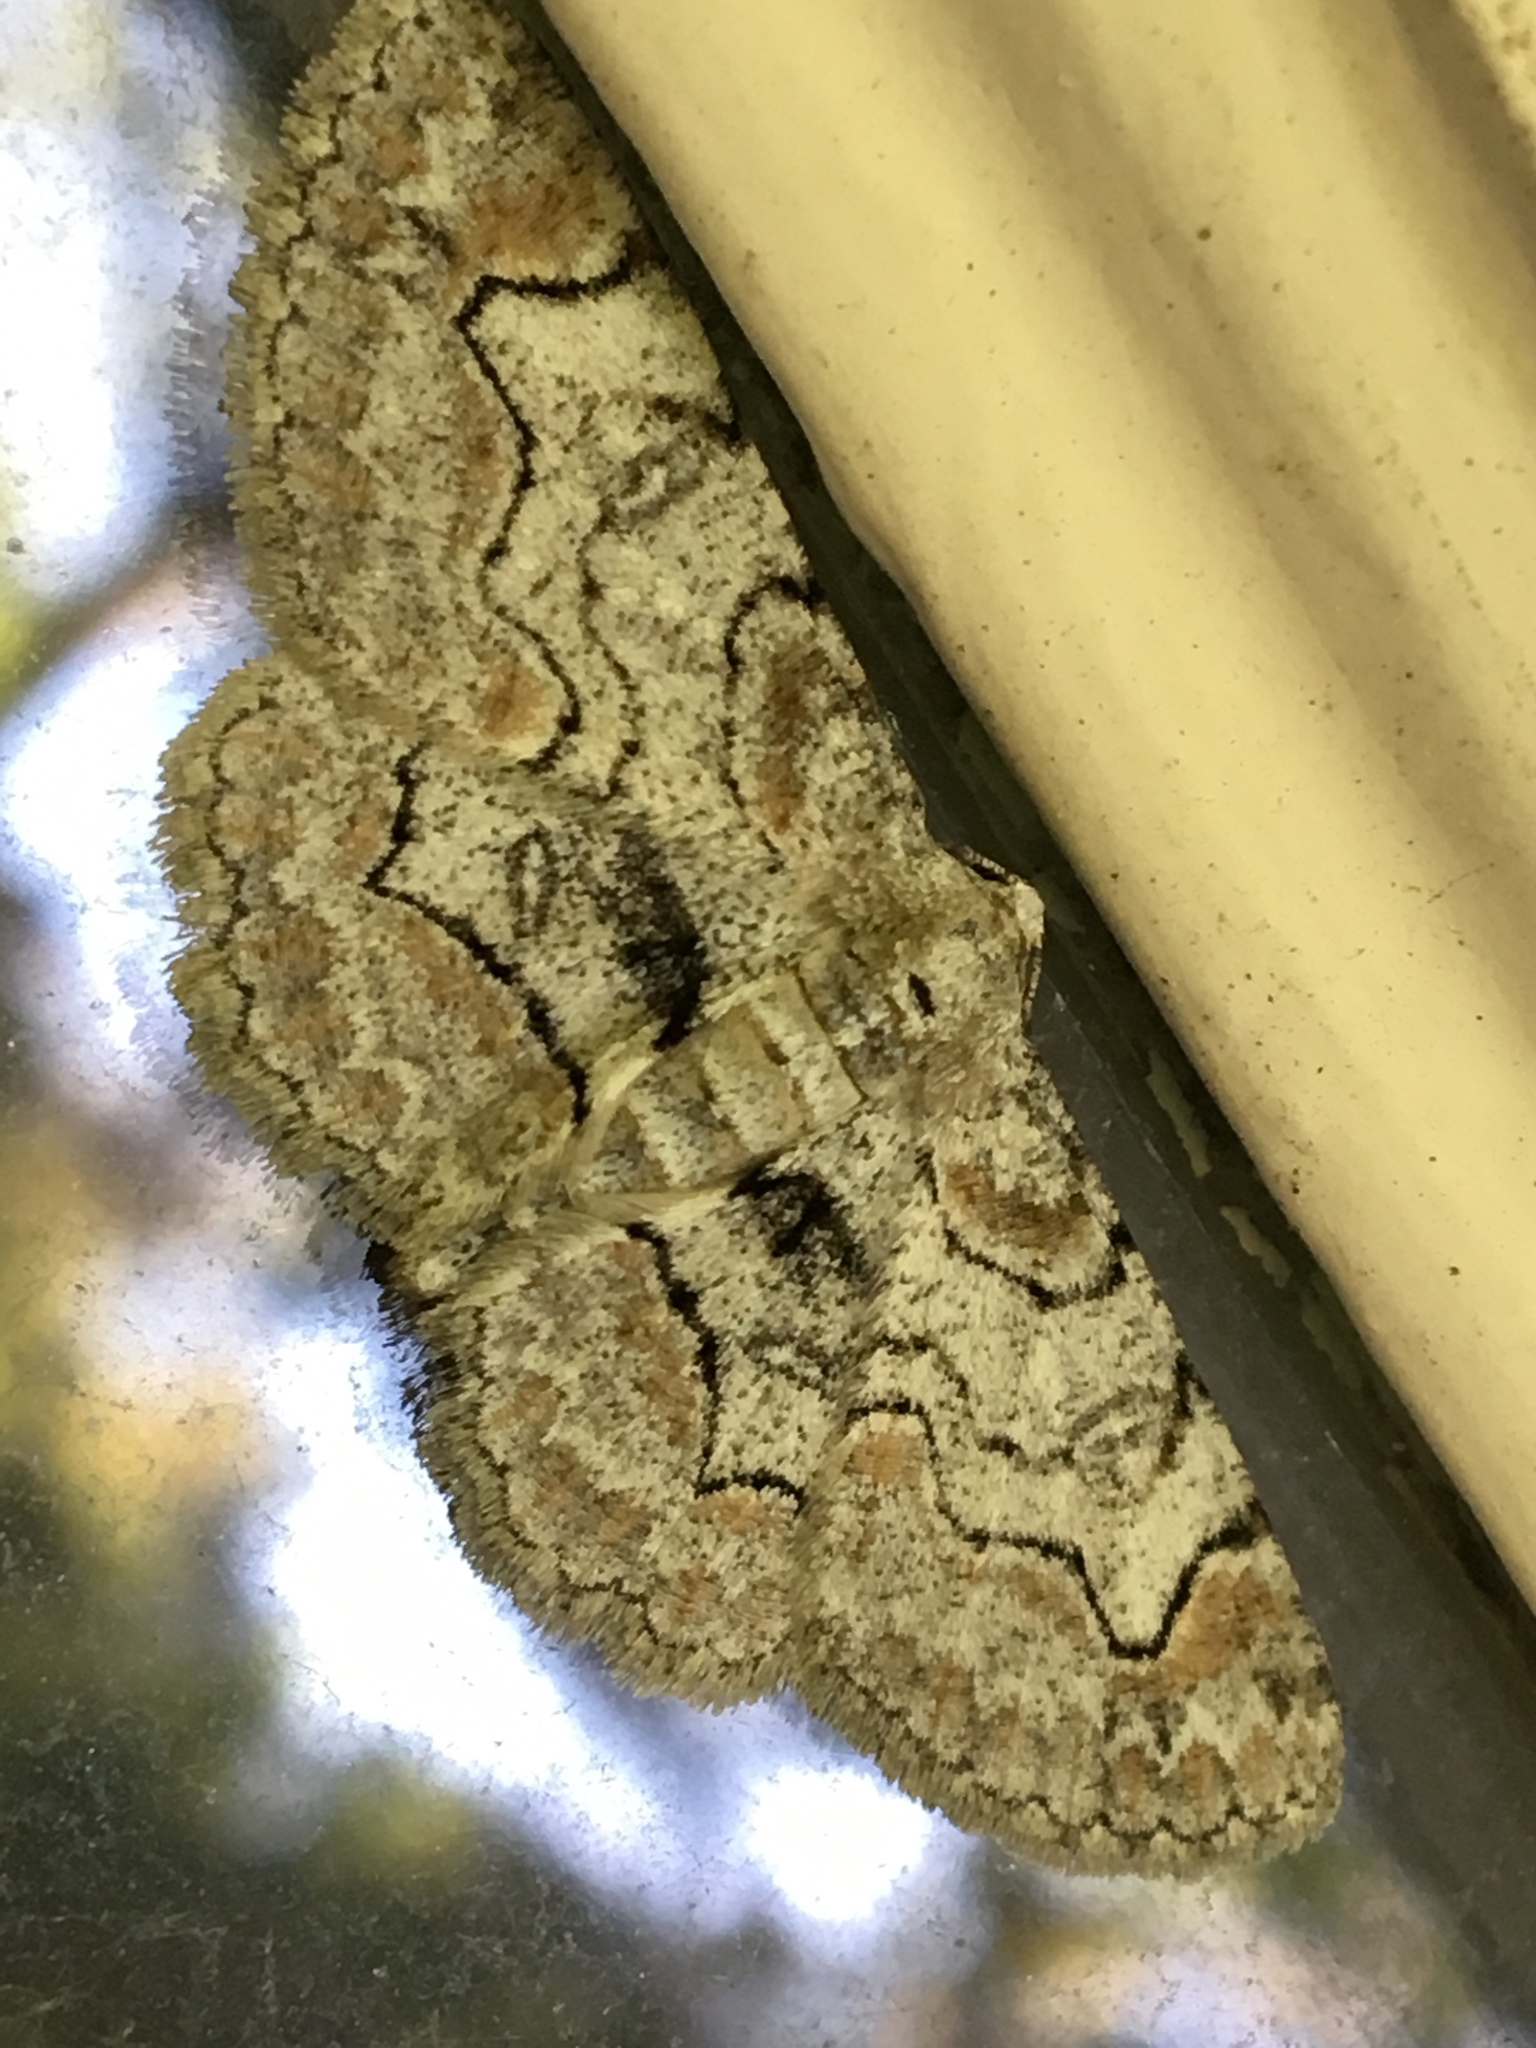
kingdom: Animalia
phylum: Arthropoda
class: Insecta
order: Lepidoptera
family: Geometridae
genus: Iridopsis
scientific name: Iridopsis larvaria
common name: Bent-line gray
